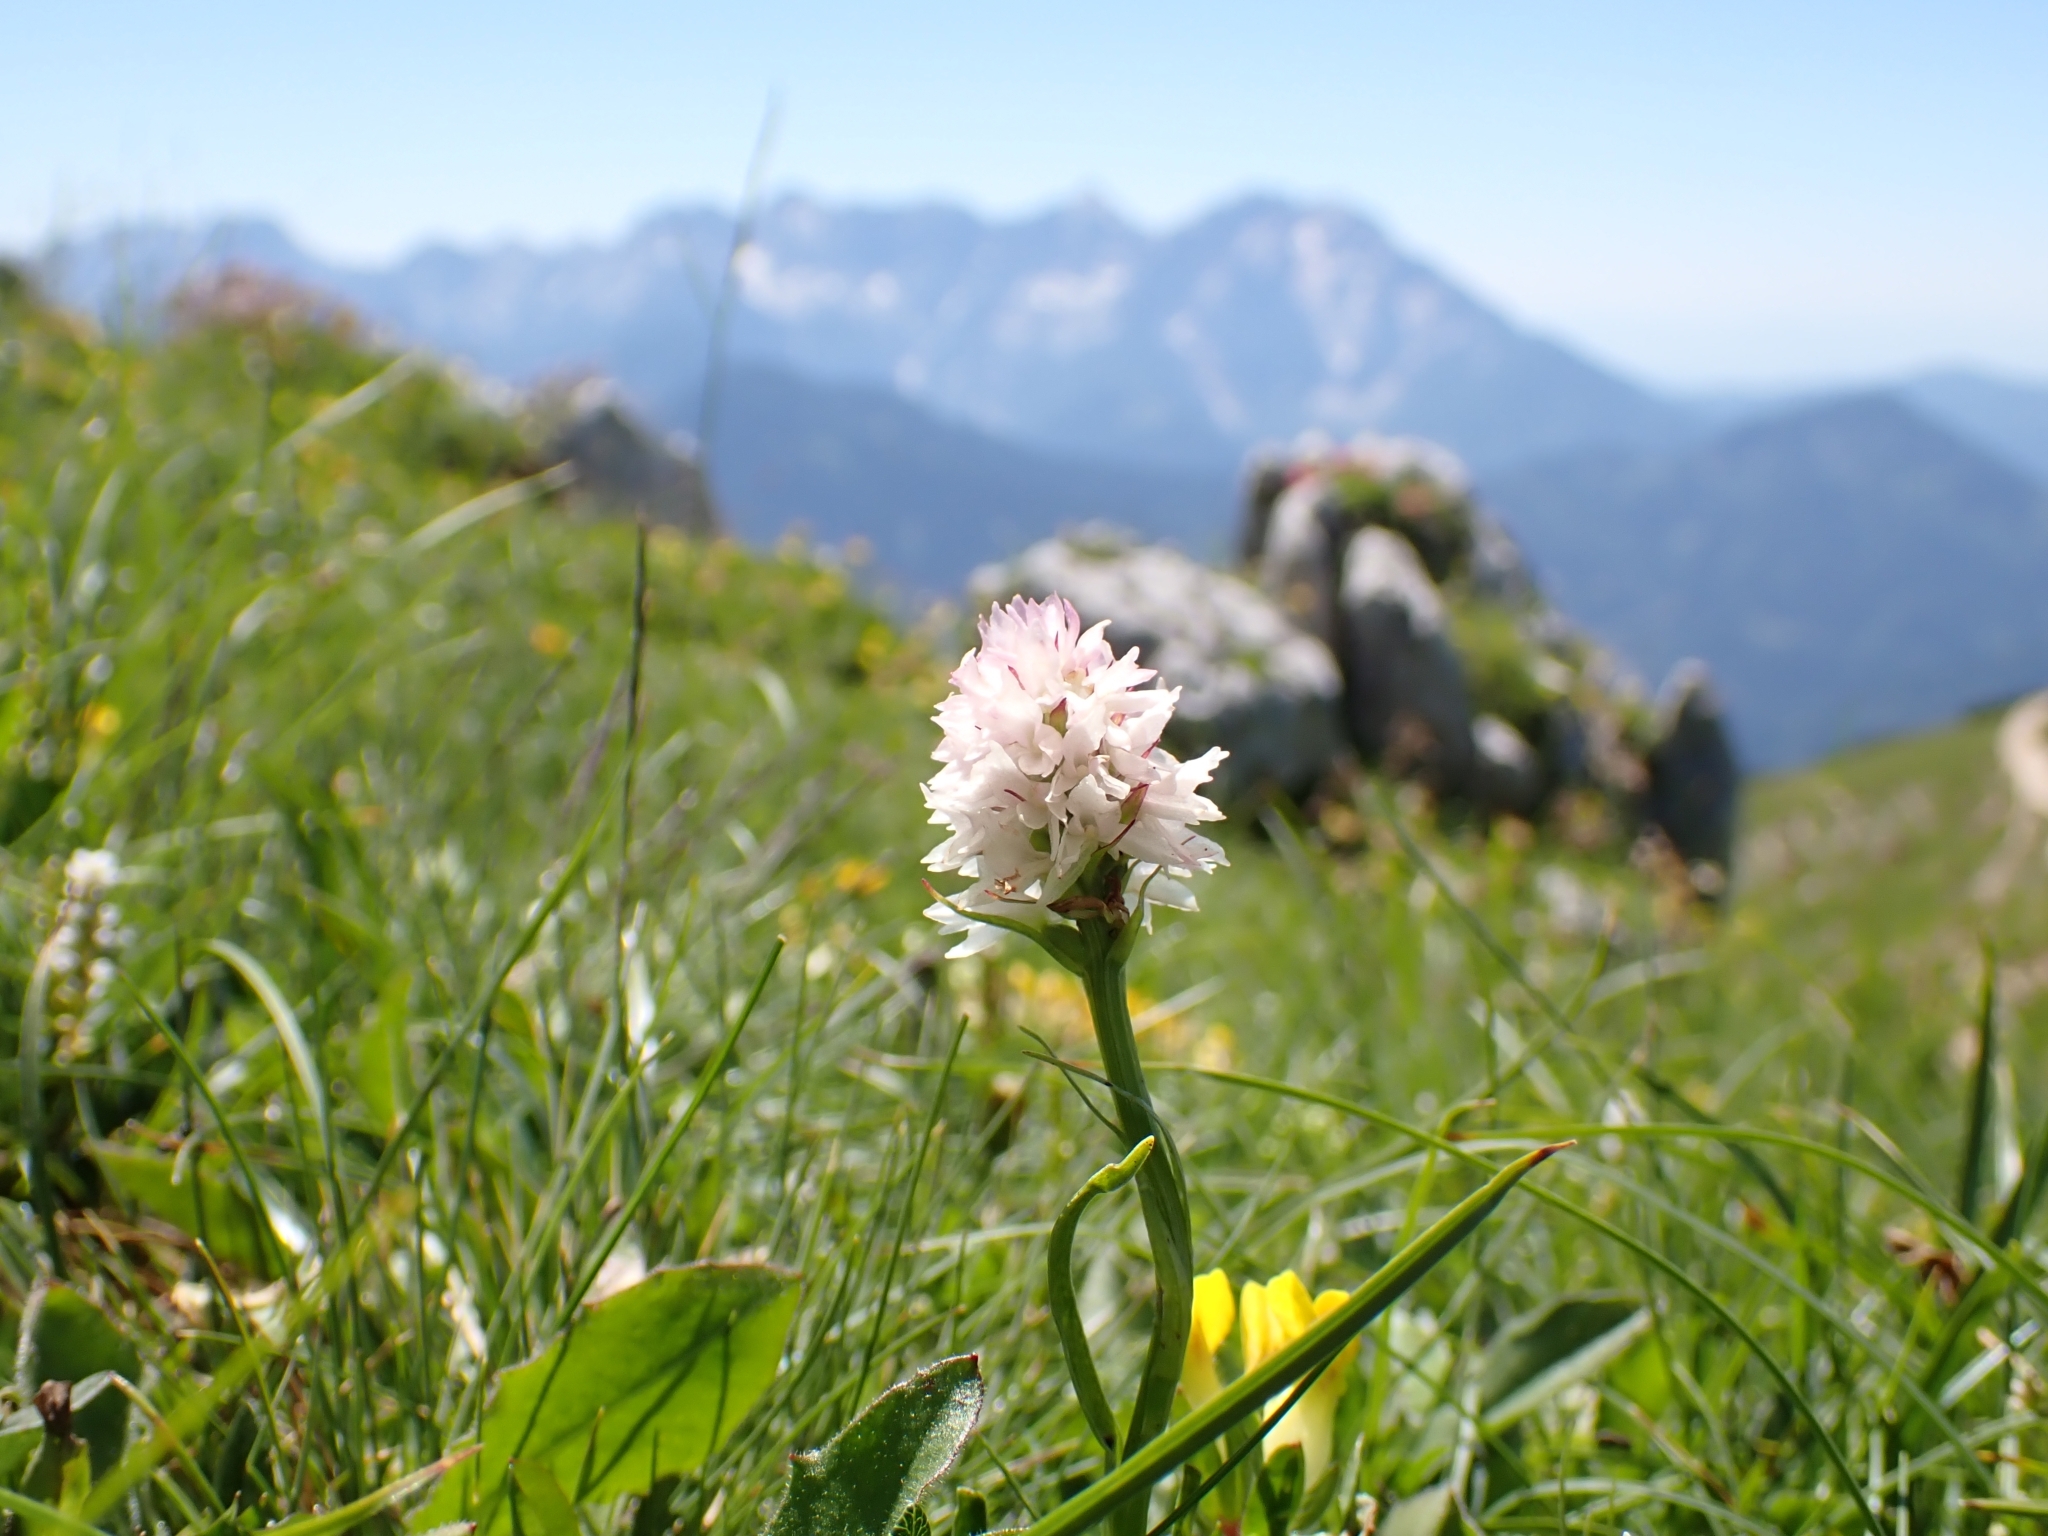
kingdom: Plantae
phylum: Tracheophyta
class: Liliopsida
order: Asparagales
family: Orchidaceae
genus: Gymnadenia
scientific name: Gymnadenia lithopolitanica
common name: Austrian gymnadenia
